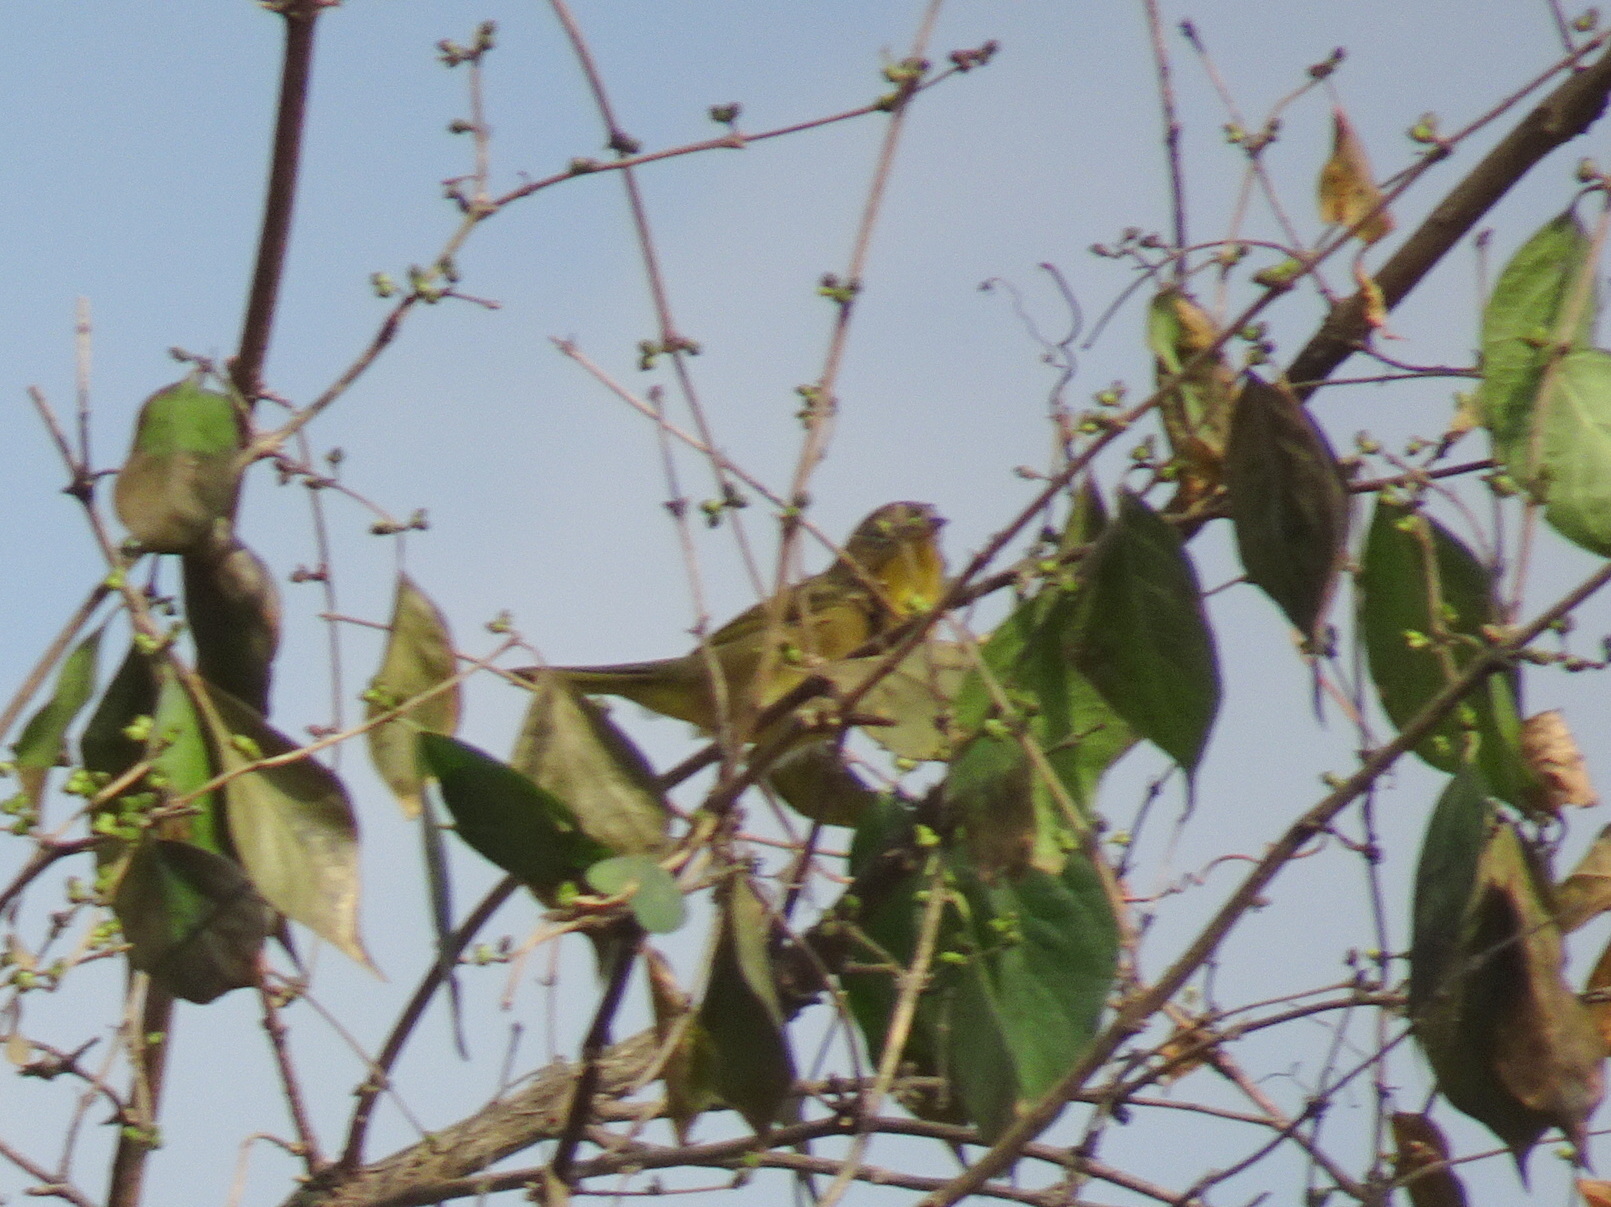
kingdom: Animalia
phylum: Chordata
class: Aves
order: Passeriformes
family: Parulidae
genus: Geothlypis
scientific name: Geothlypis trichas
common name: Common yellowthroat
